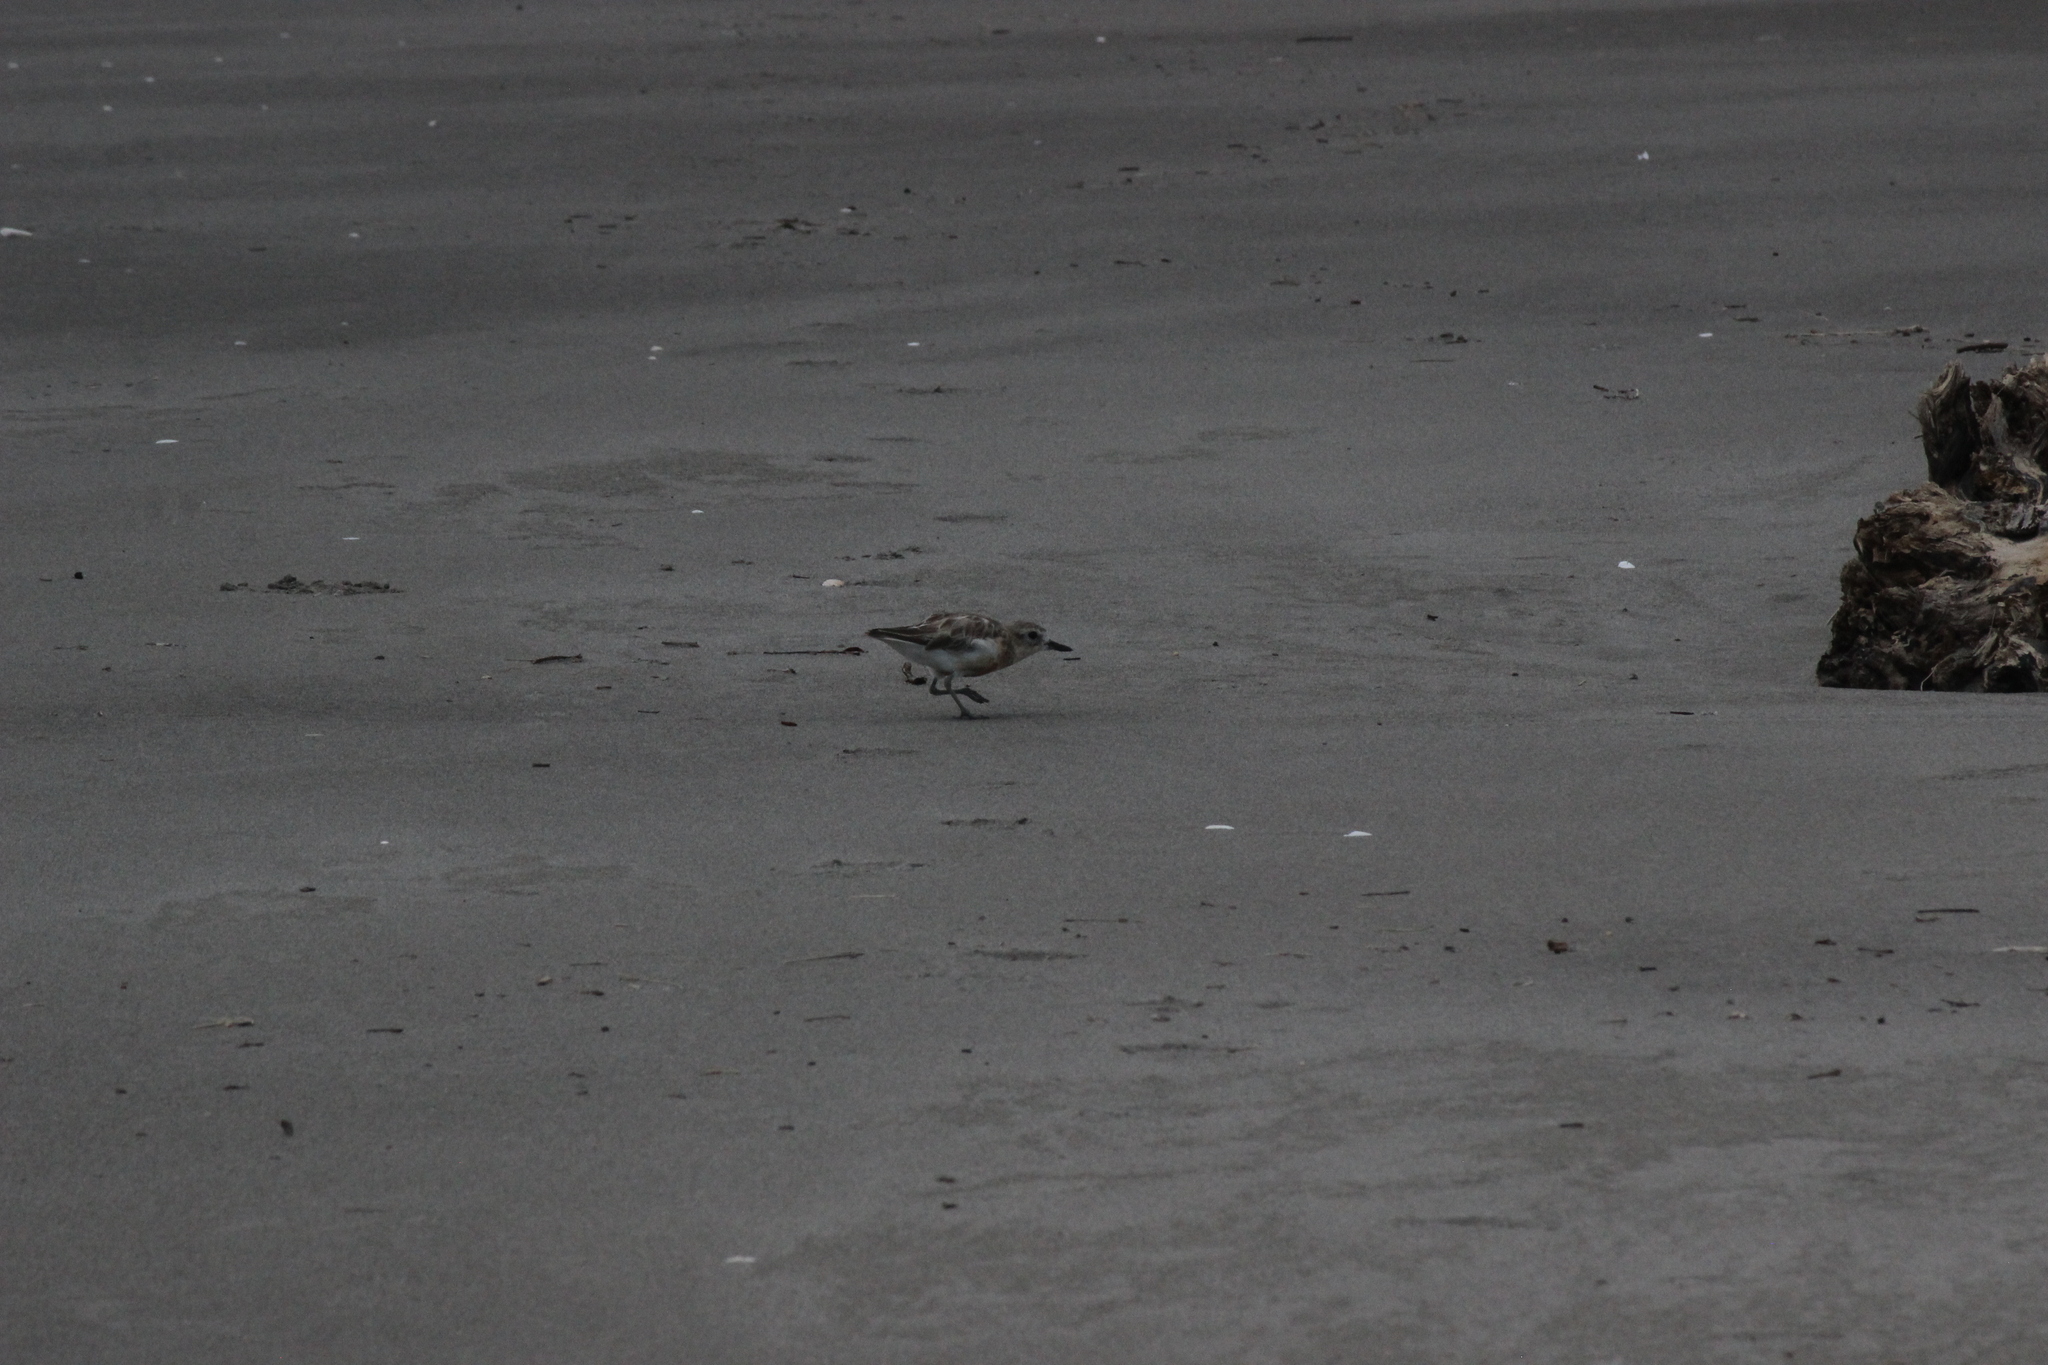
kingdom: Animalia
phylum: Chordata
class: Aves
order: Charadriiformes
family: Charadriidae
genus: Anarhynchus
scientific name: Anarhynchus
